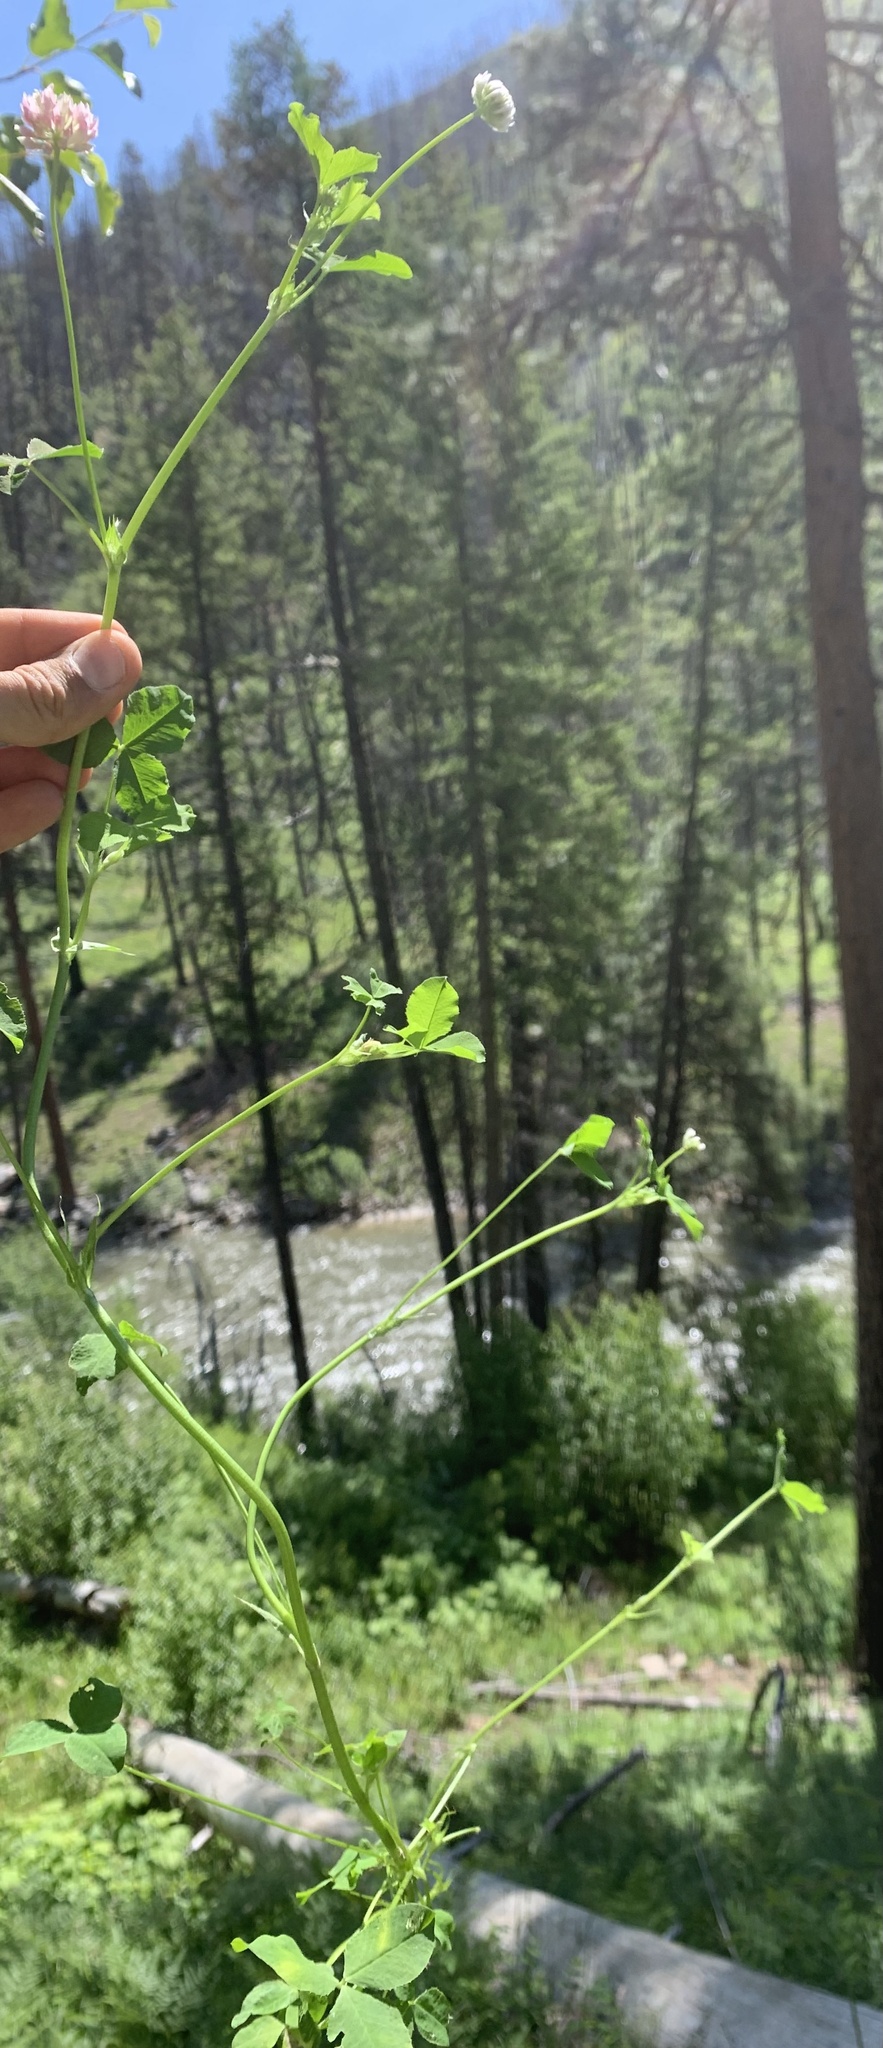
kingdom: Plantae
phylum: Tracheophyta
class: Magnoliopsida
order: Fabales
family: Fabaceae
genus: Trifolium
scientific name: Trifolium hybridum
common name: Alsike clover
